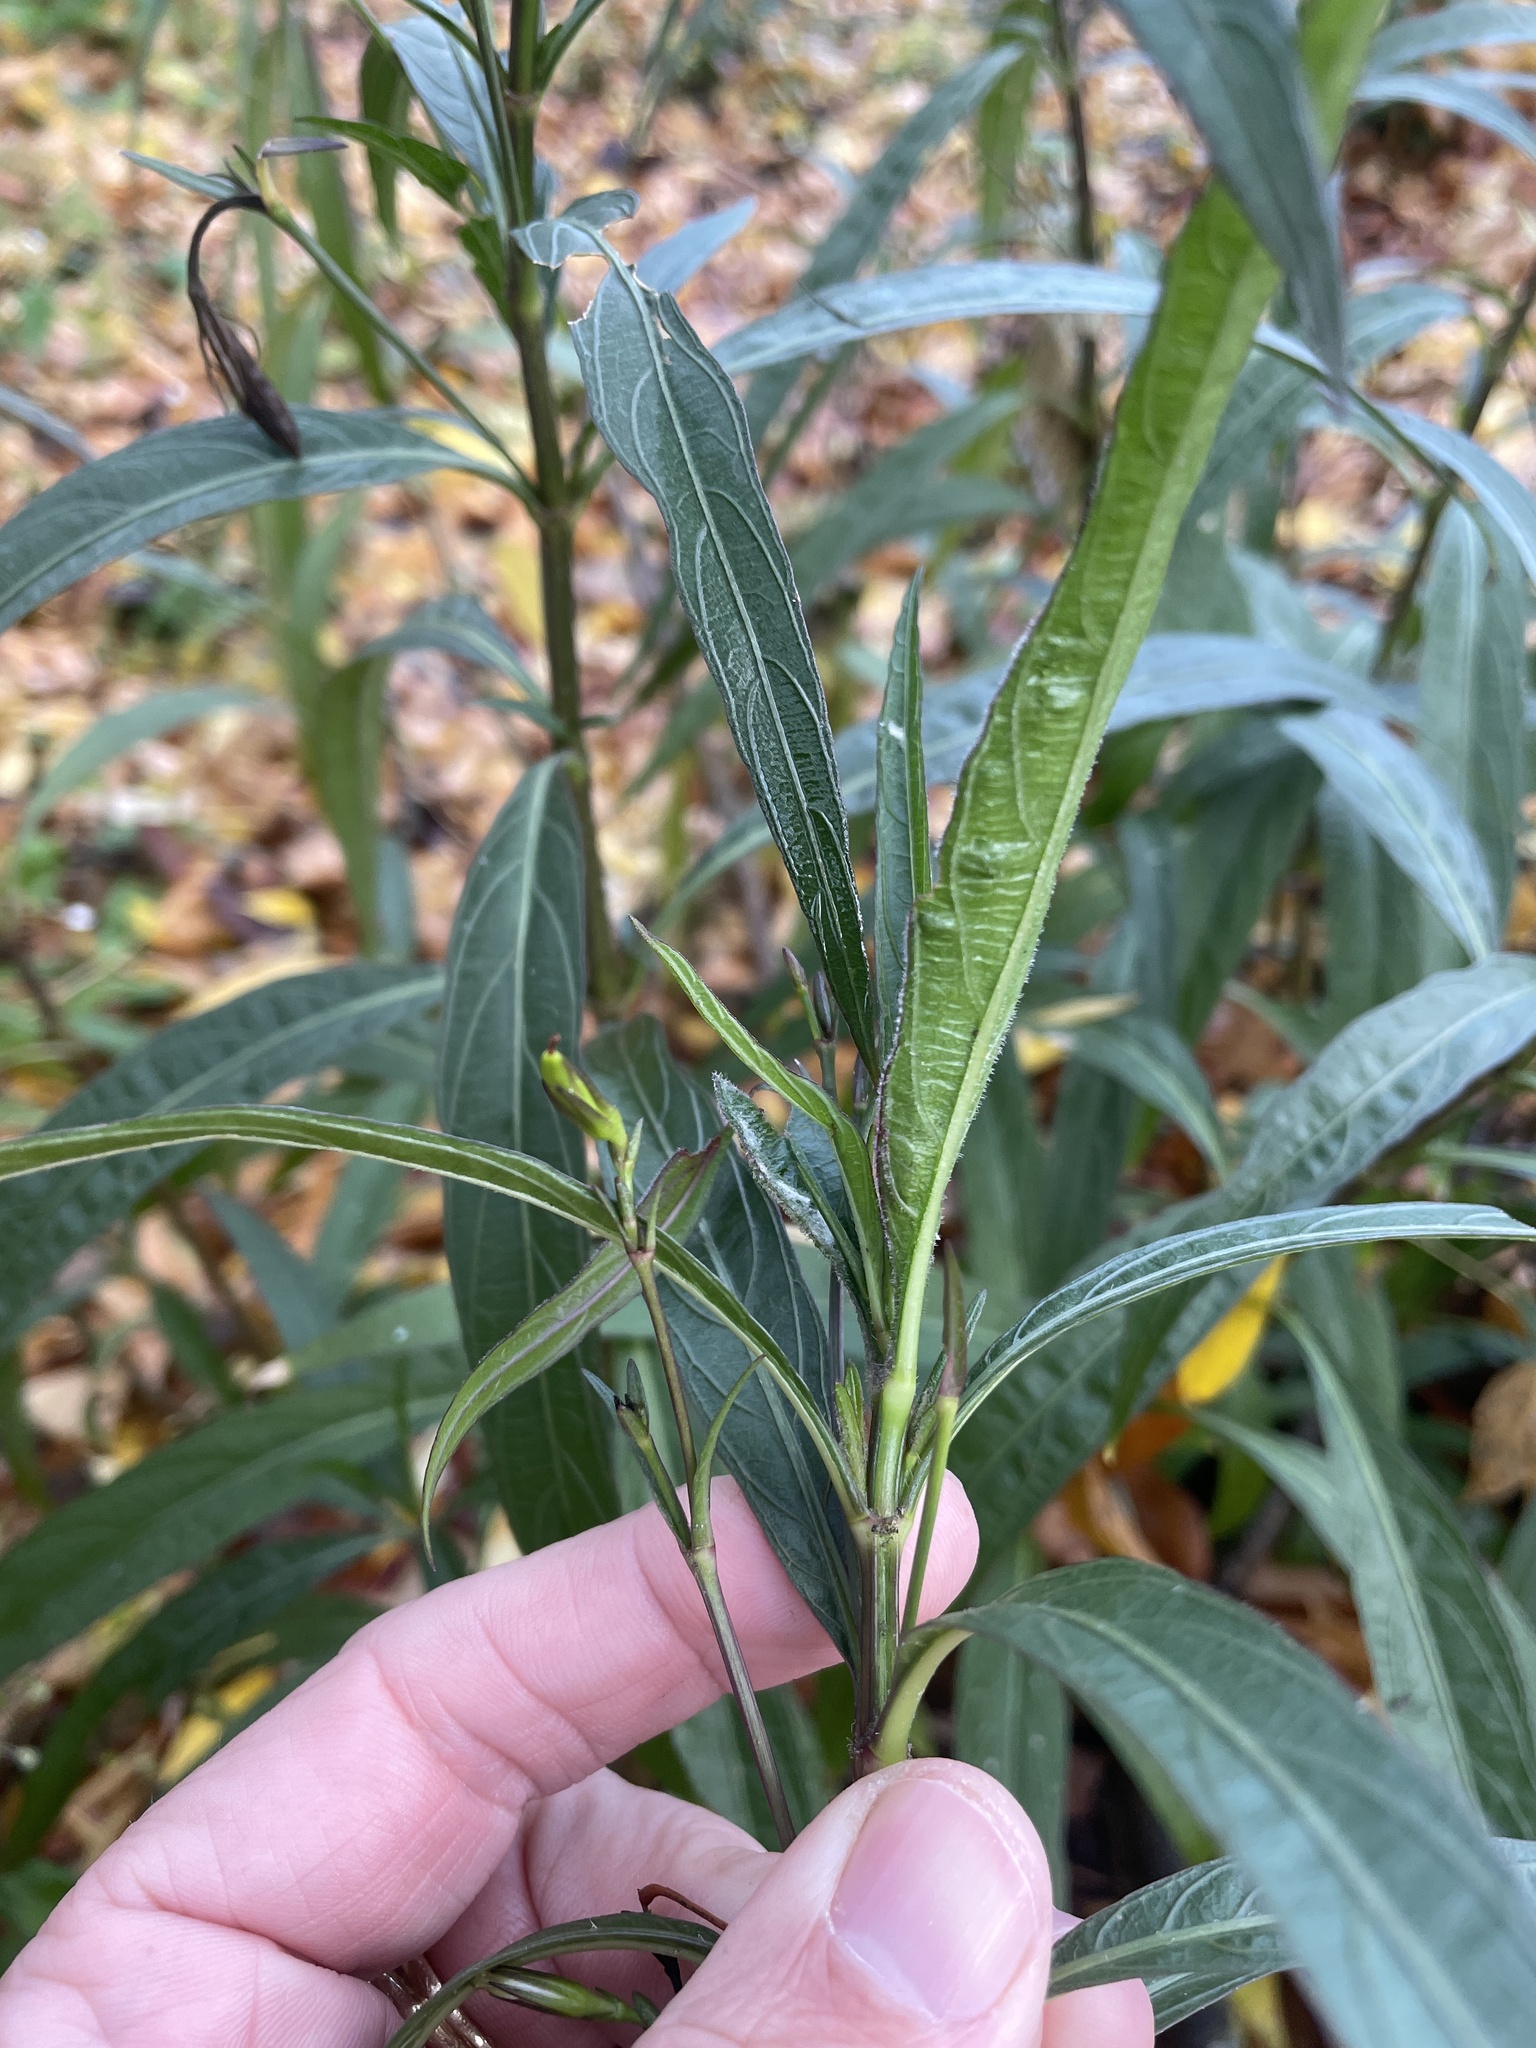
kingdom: Plantae
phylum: Tracheophyta
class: Magnoliopsida
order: Lamiales
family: Acanthaceae
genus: Ruellia
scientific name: Ruellia simplex
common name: Softseed wild petunia
